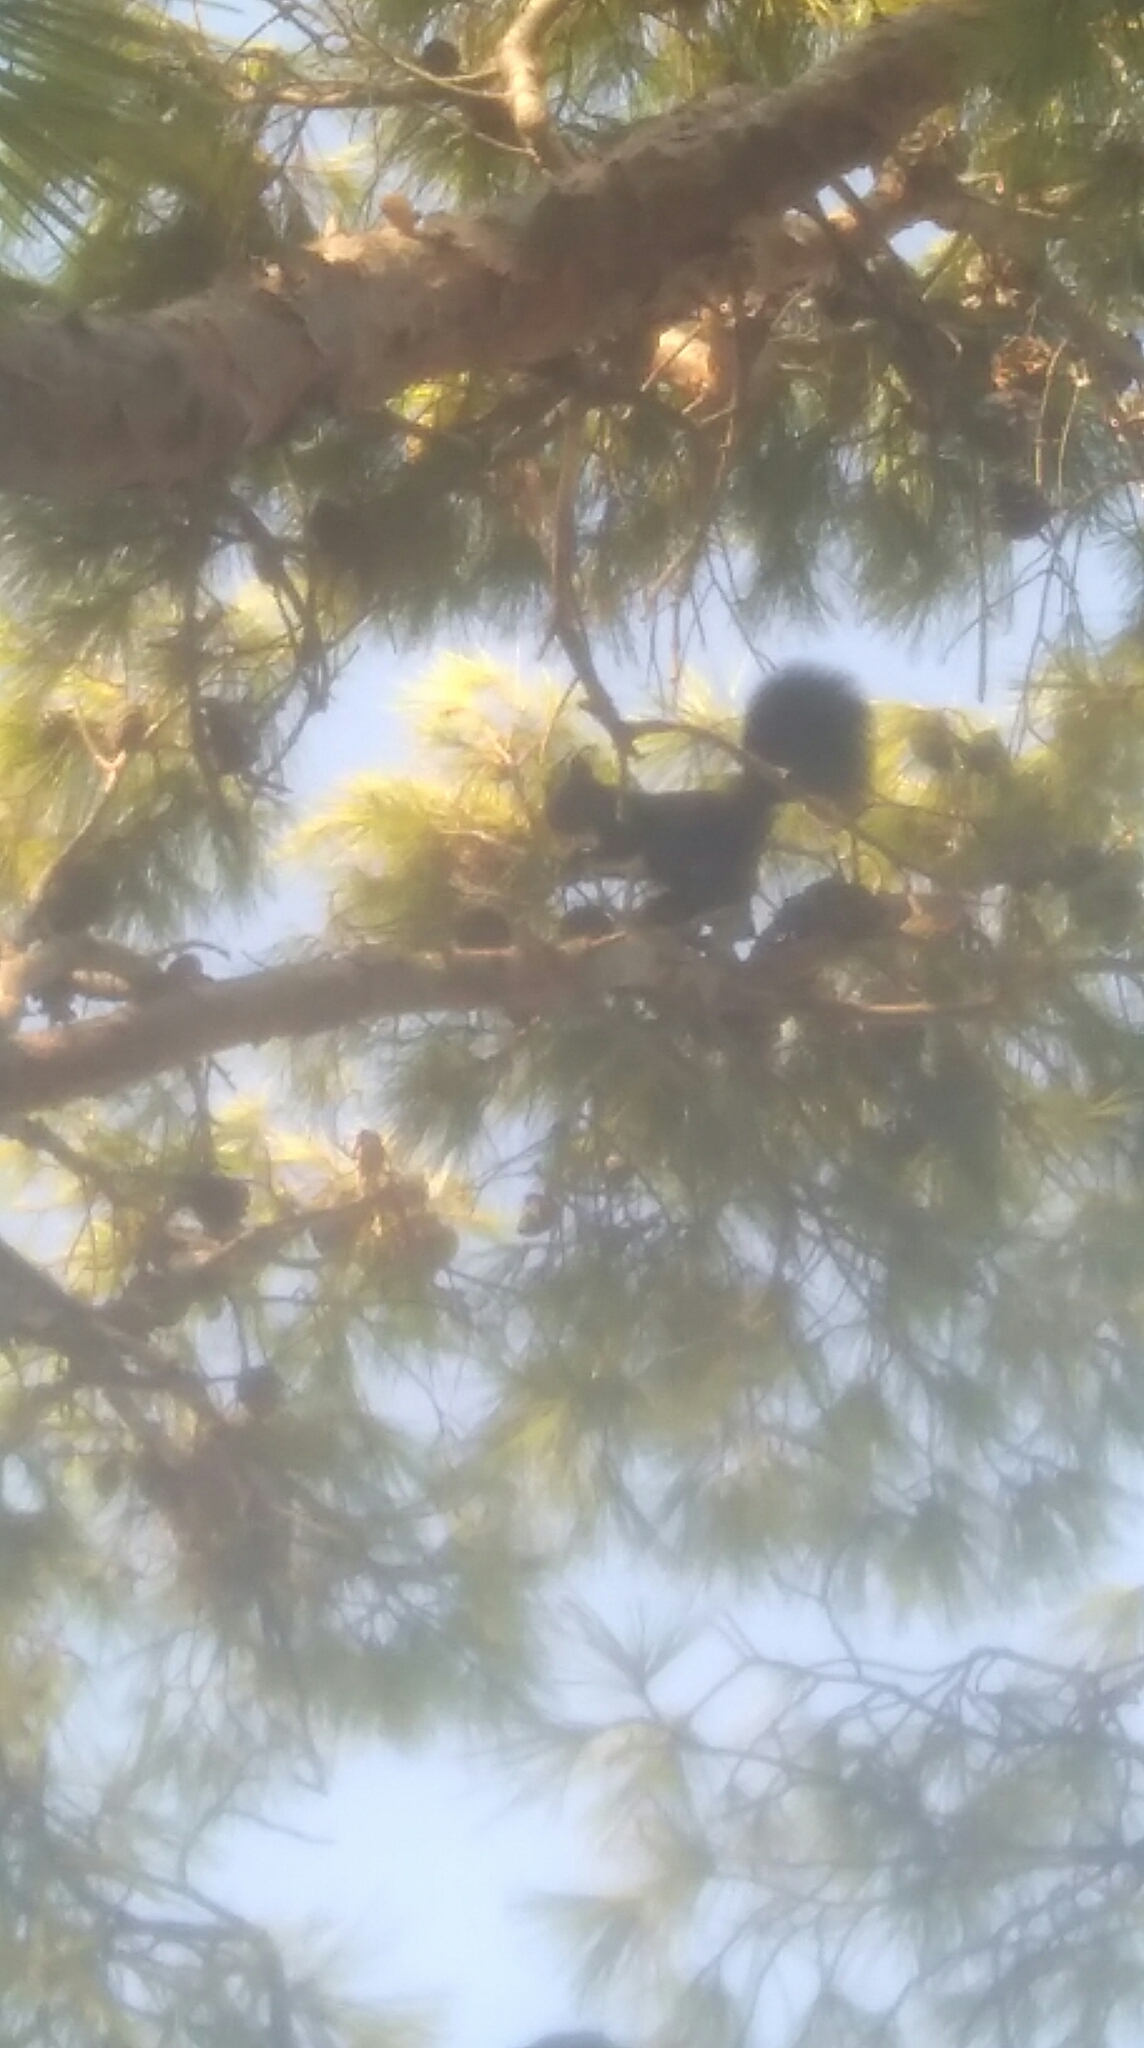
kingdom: Animalia
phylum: Chordata
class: Mammalia
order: Rodentia
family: Sciuridae
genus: Sciurus
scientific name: Sciurus vulgaris
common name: Eurasian red squirrel
